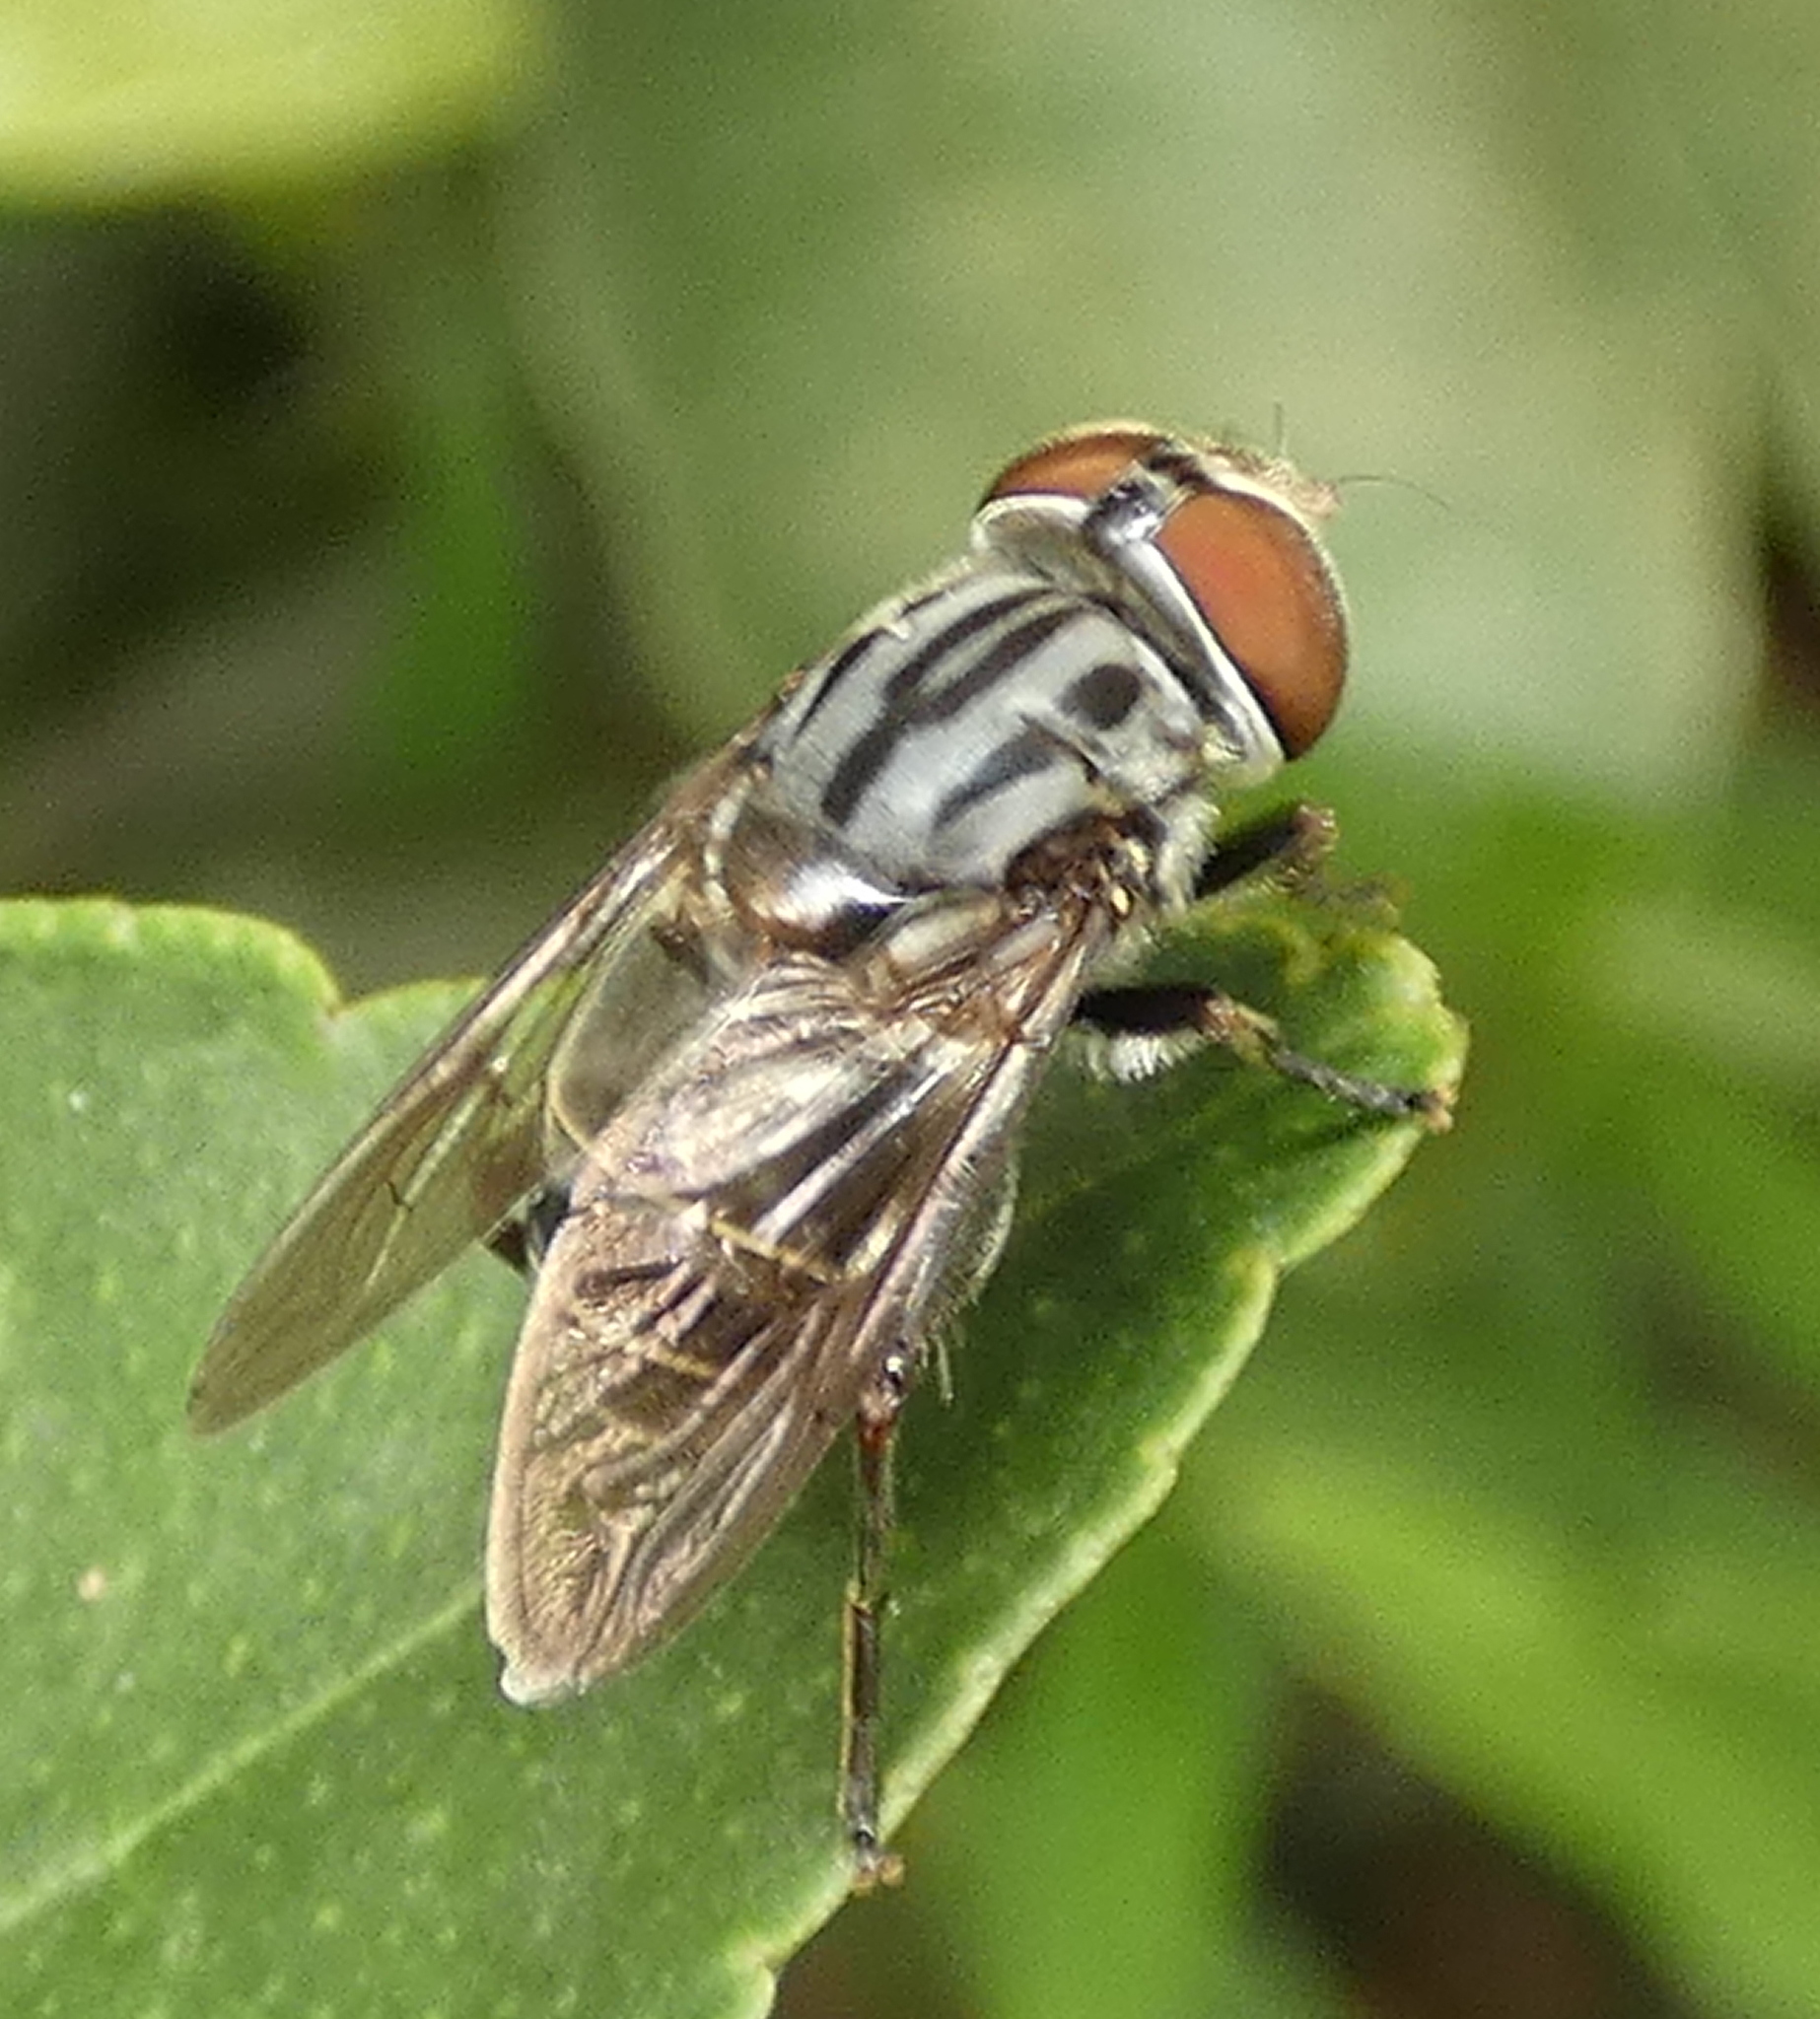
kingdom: Animalia
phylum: Arthropoda
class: Insecta
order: Diptera
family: Syrphidae
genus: Palpada
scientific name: Palpada furcata
